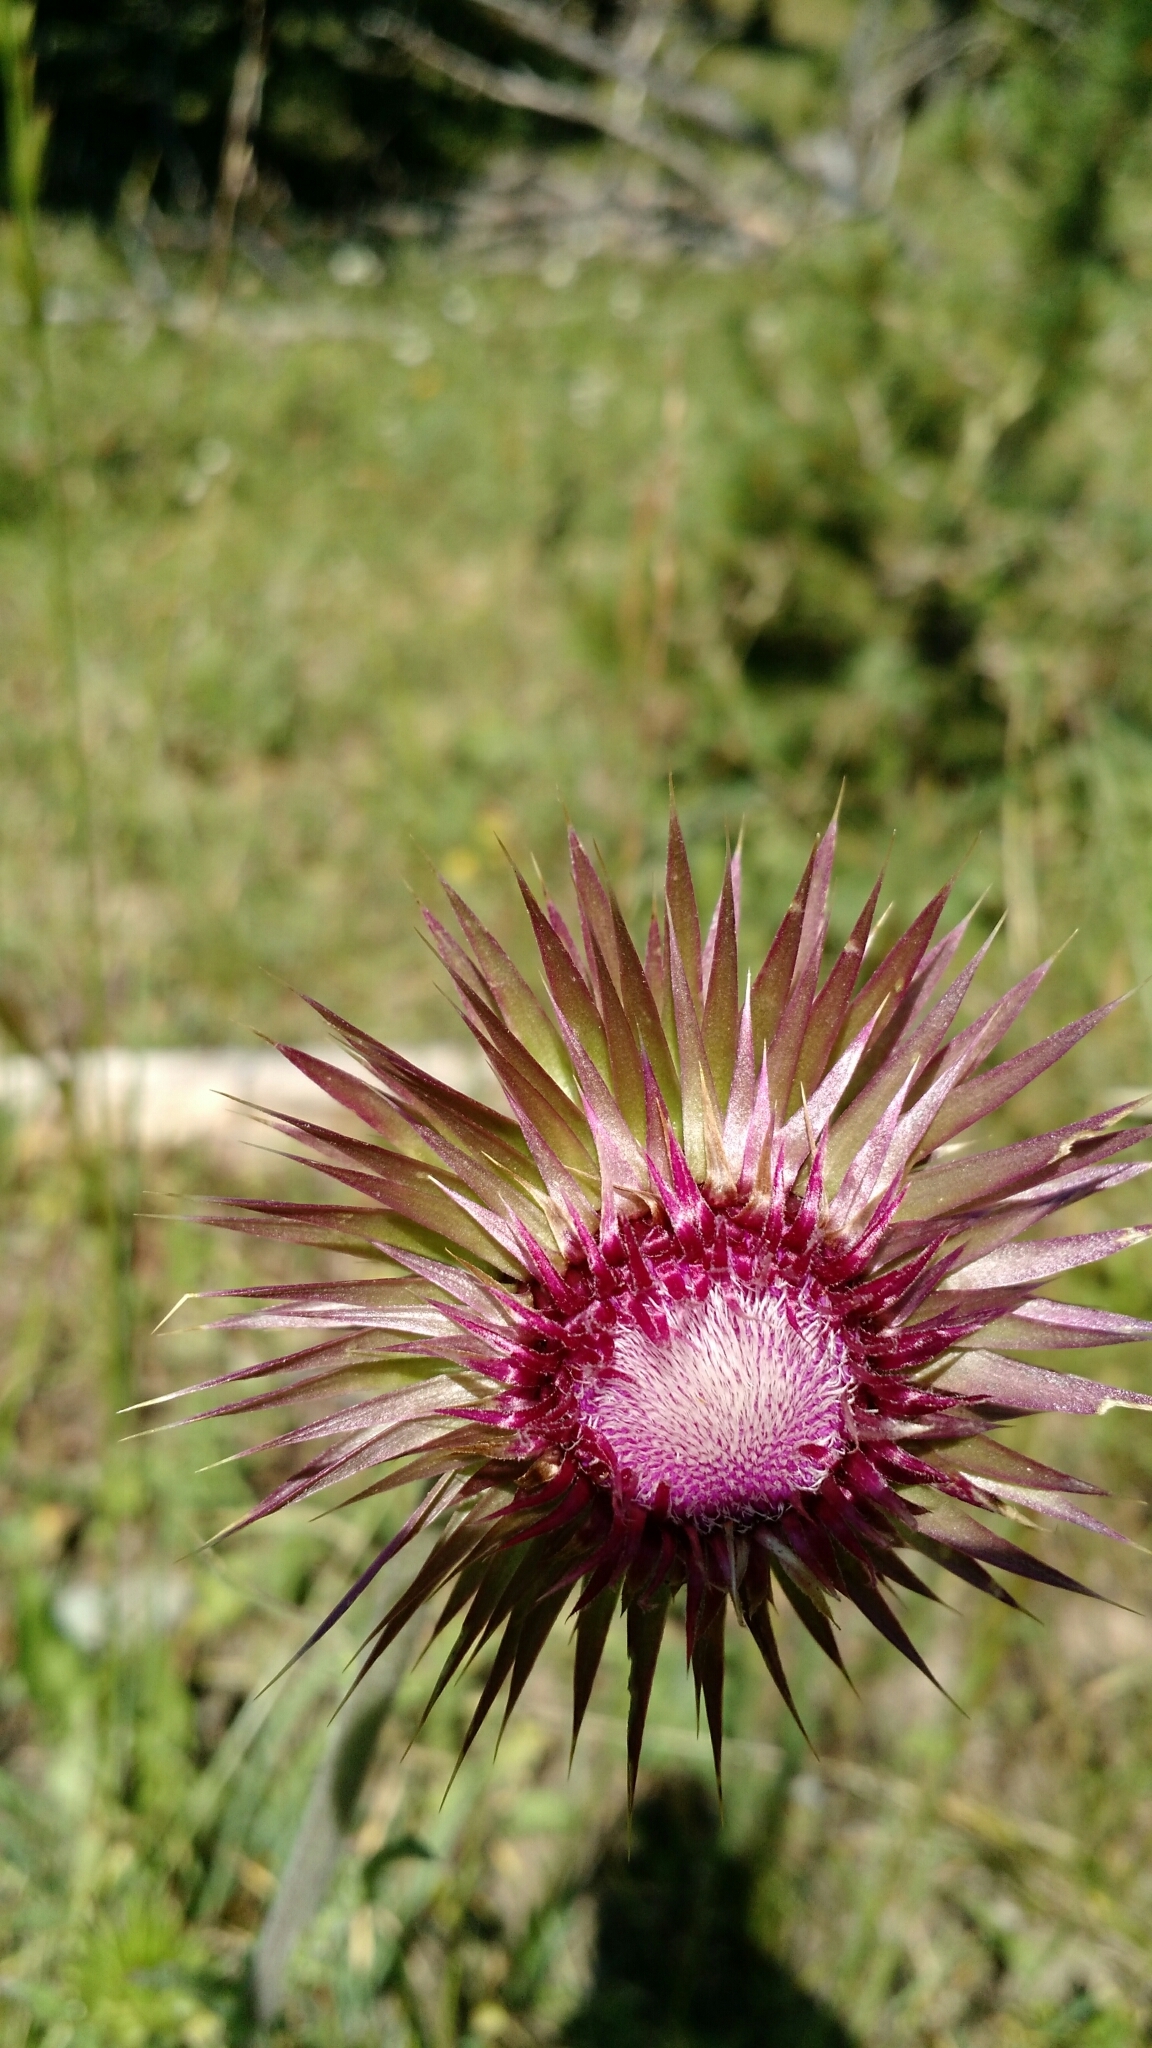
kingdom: Plantae
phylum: Tracheophyta
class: Magnoliopsida
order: Asterales
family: Asteraceae
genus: Carduus
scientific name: Carduus nutans
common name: Musk thistle
